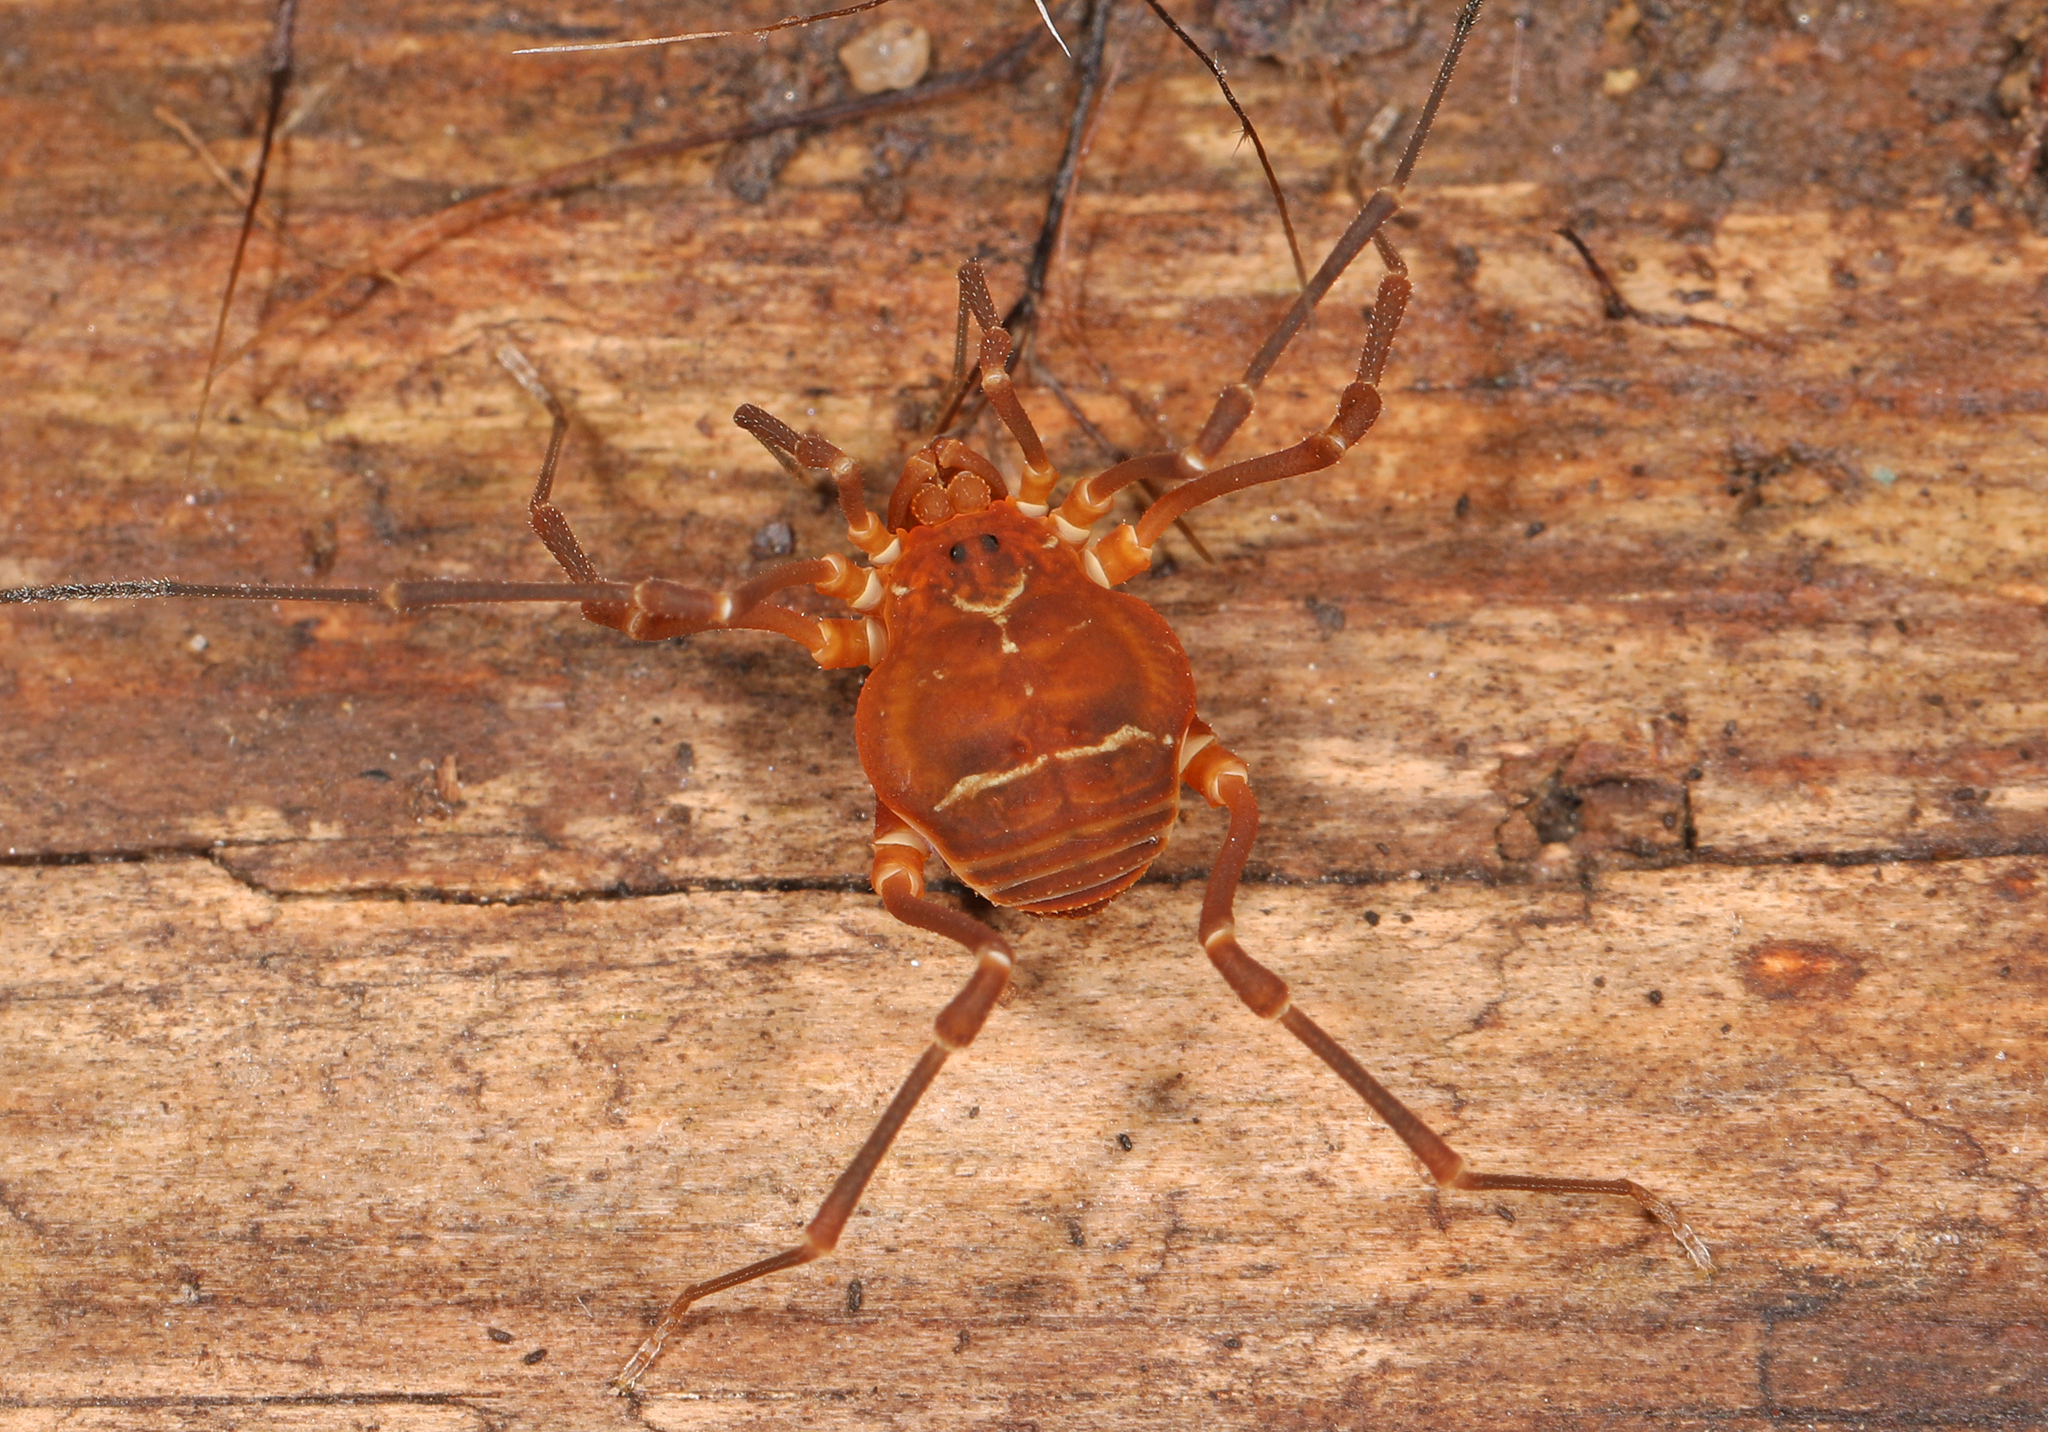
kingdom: Animalia
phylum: Arthropoda
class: Arachnida
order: Opiliones
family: Cosmetidae
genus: Libitioides
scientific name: Libitioides sayi
